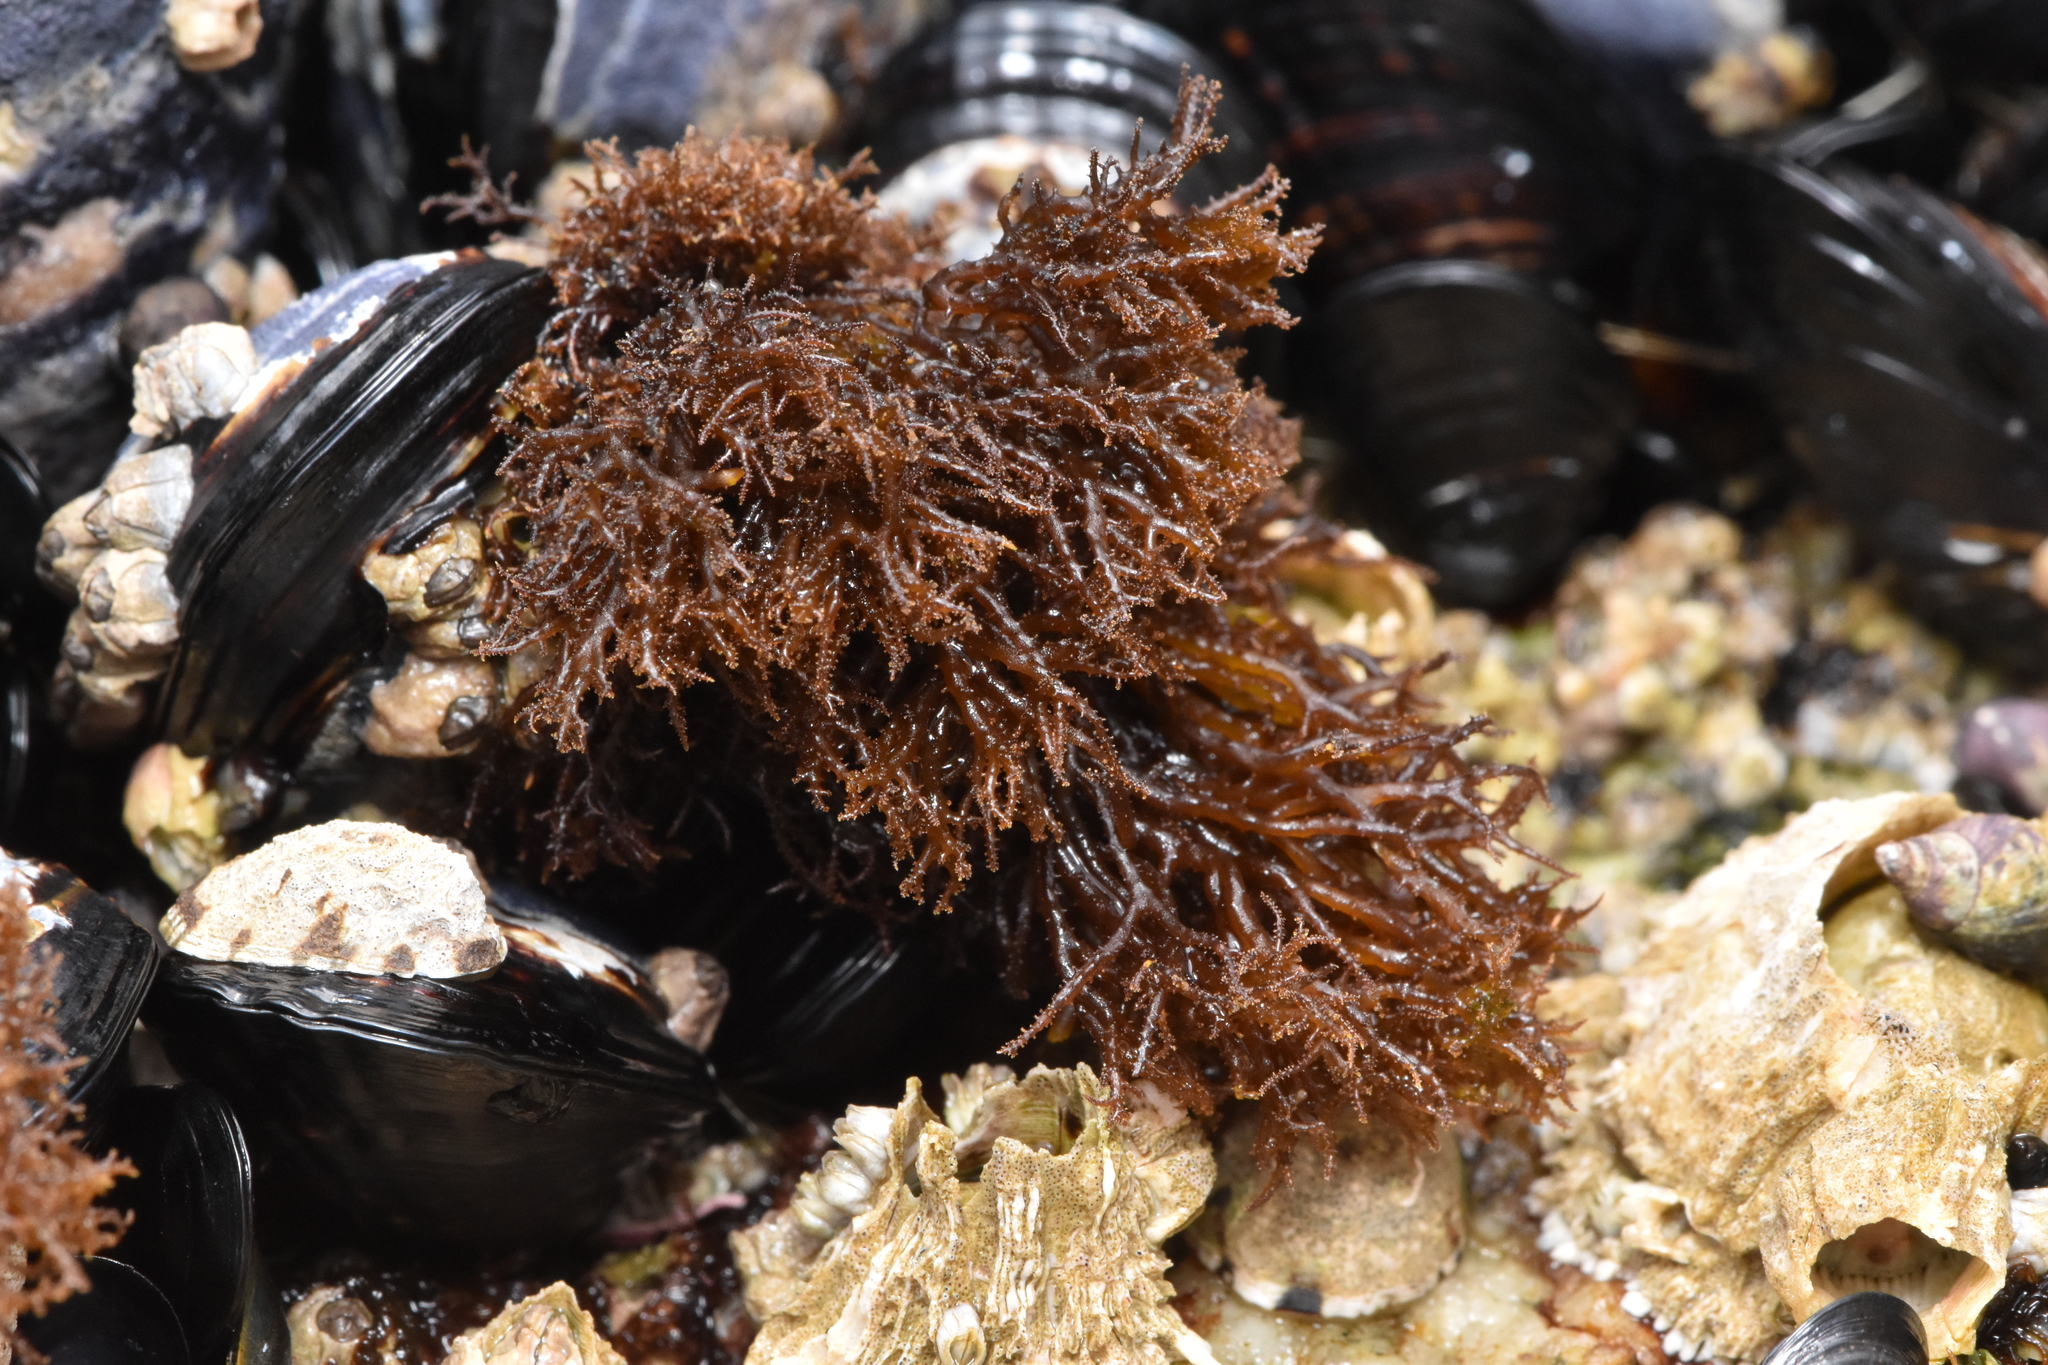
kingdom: Plantae
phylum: Rhodophyta
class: Florideophyceae
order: Gigartinales
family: Endocladiaceae
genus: Endocladia
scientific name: Endocladia muricata
